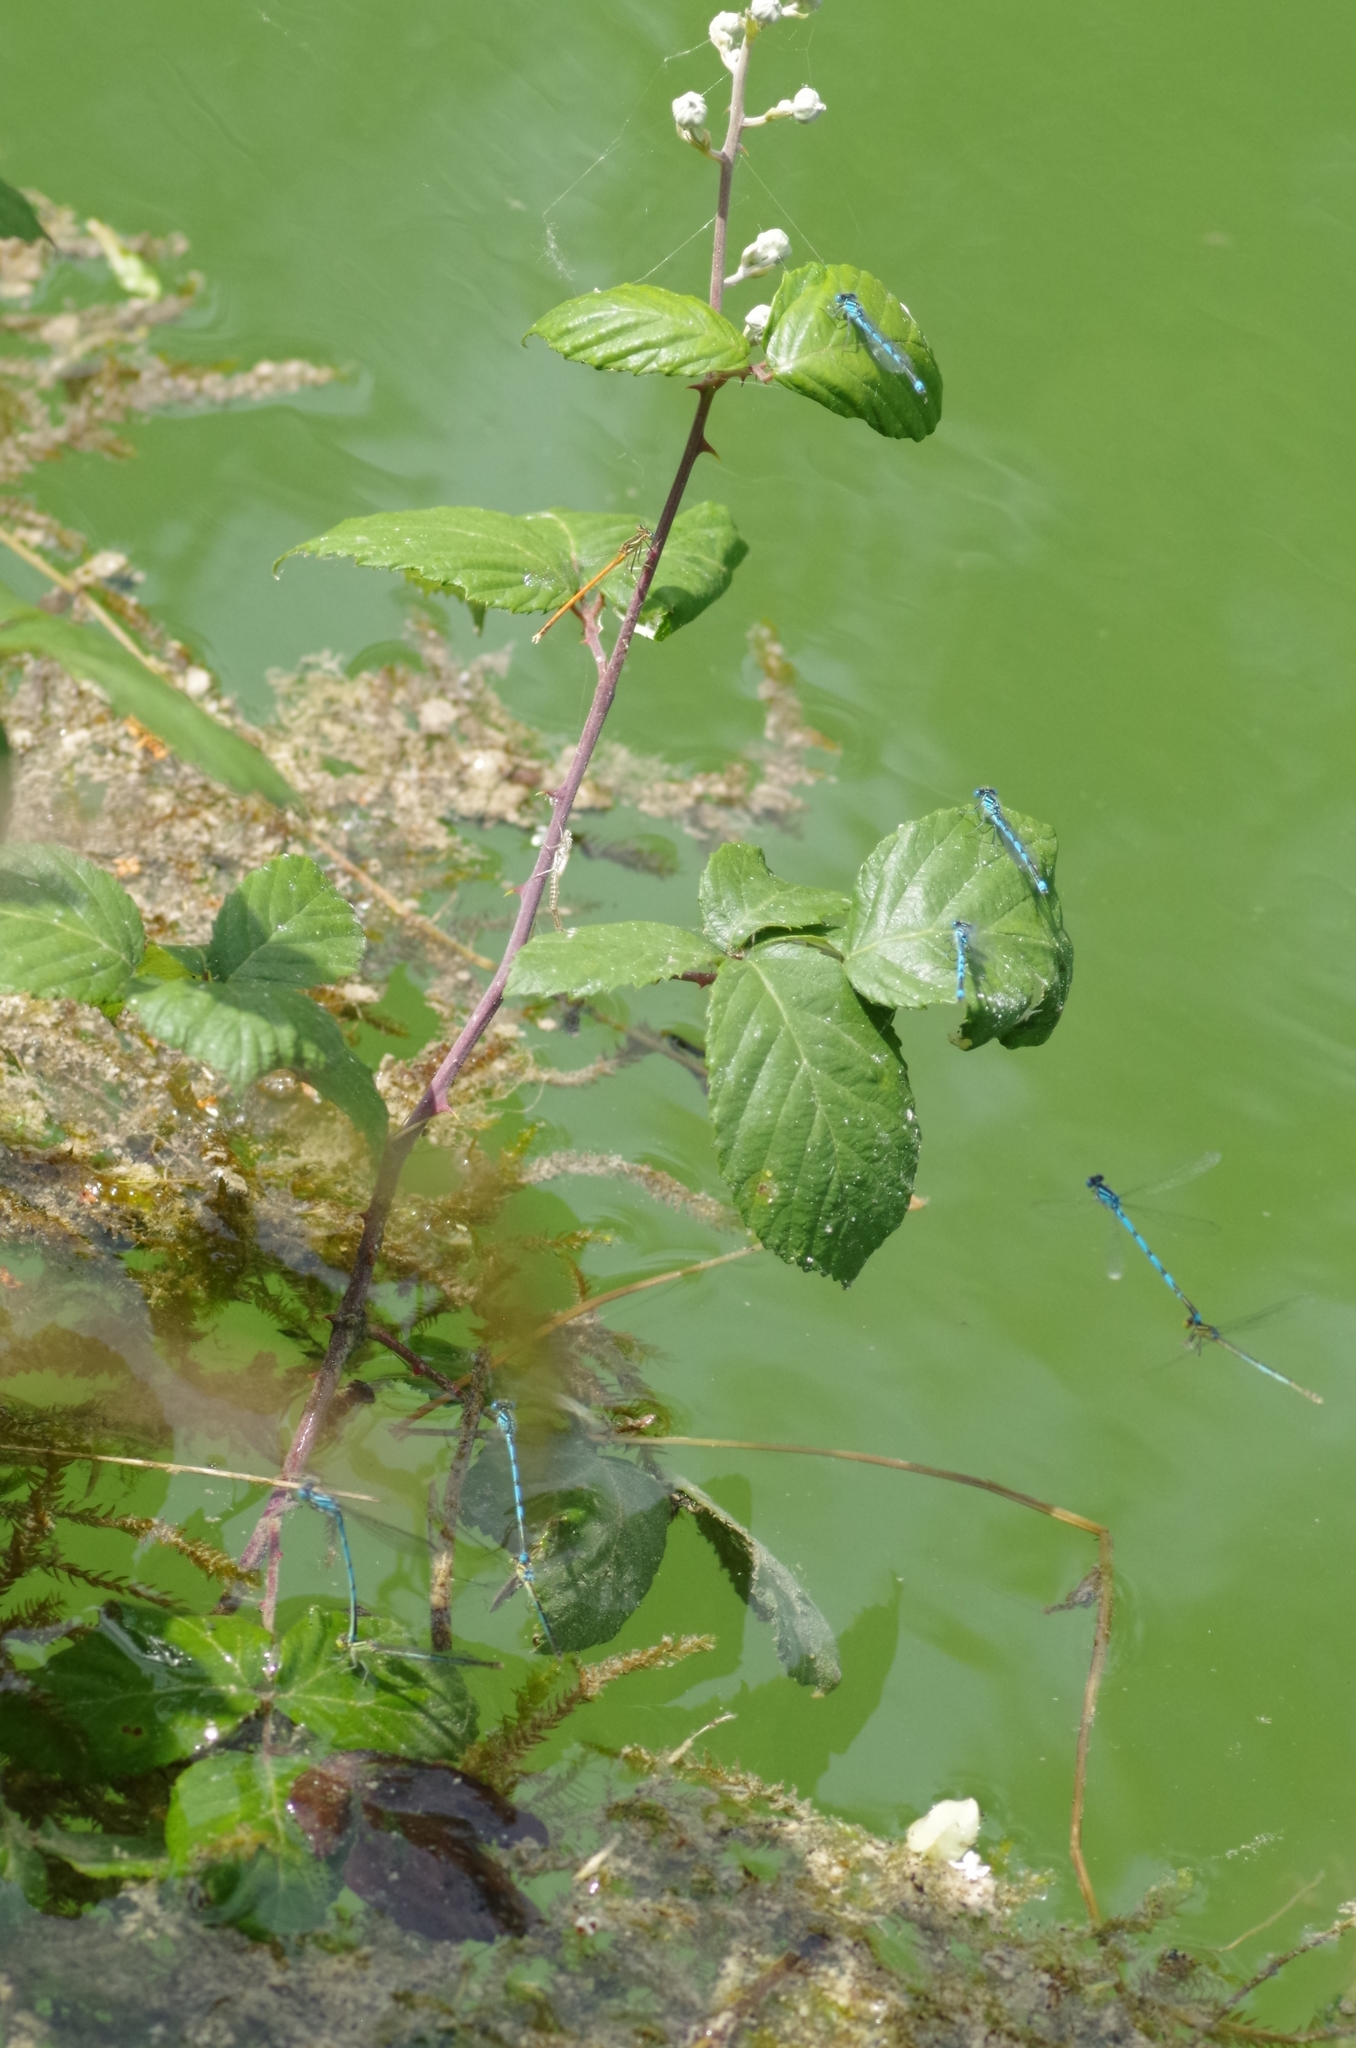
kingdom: Animalia
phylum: Arthropoda
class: Insecta
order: Odonata
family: Coenagrionidae
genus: Erythromma
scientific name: Erythromma lindenii
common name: Blue-eye
